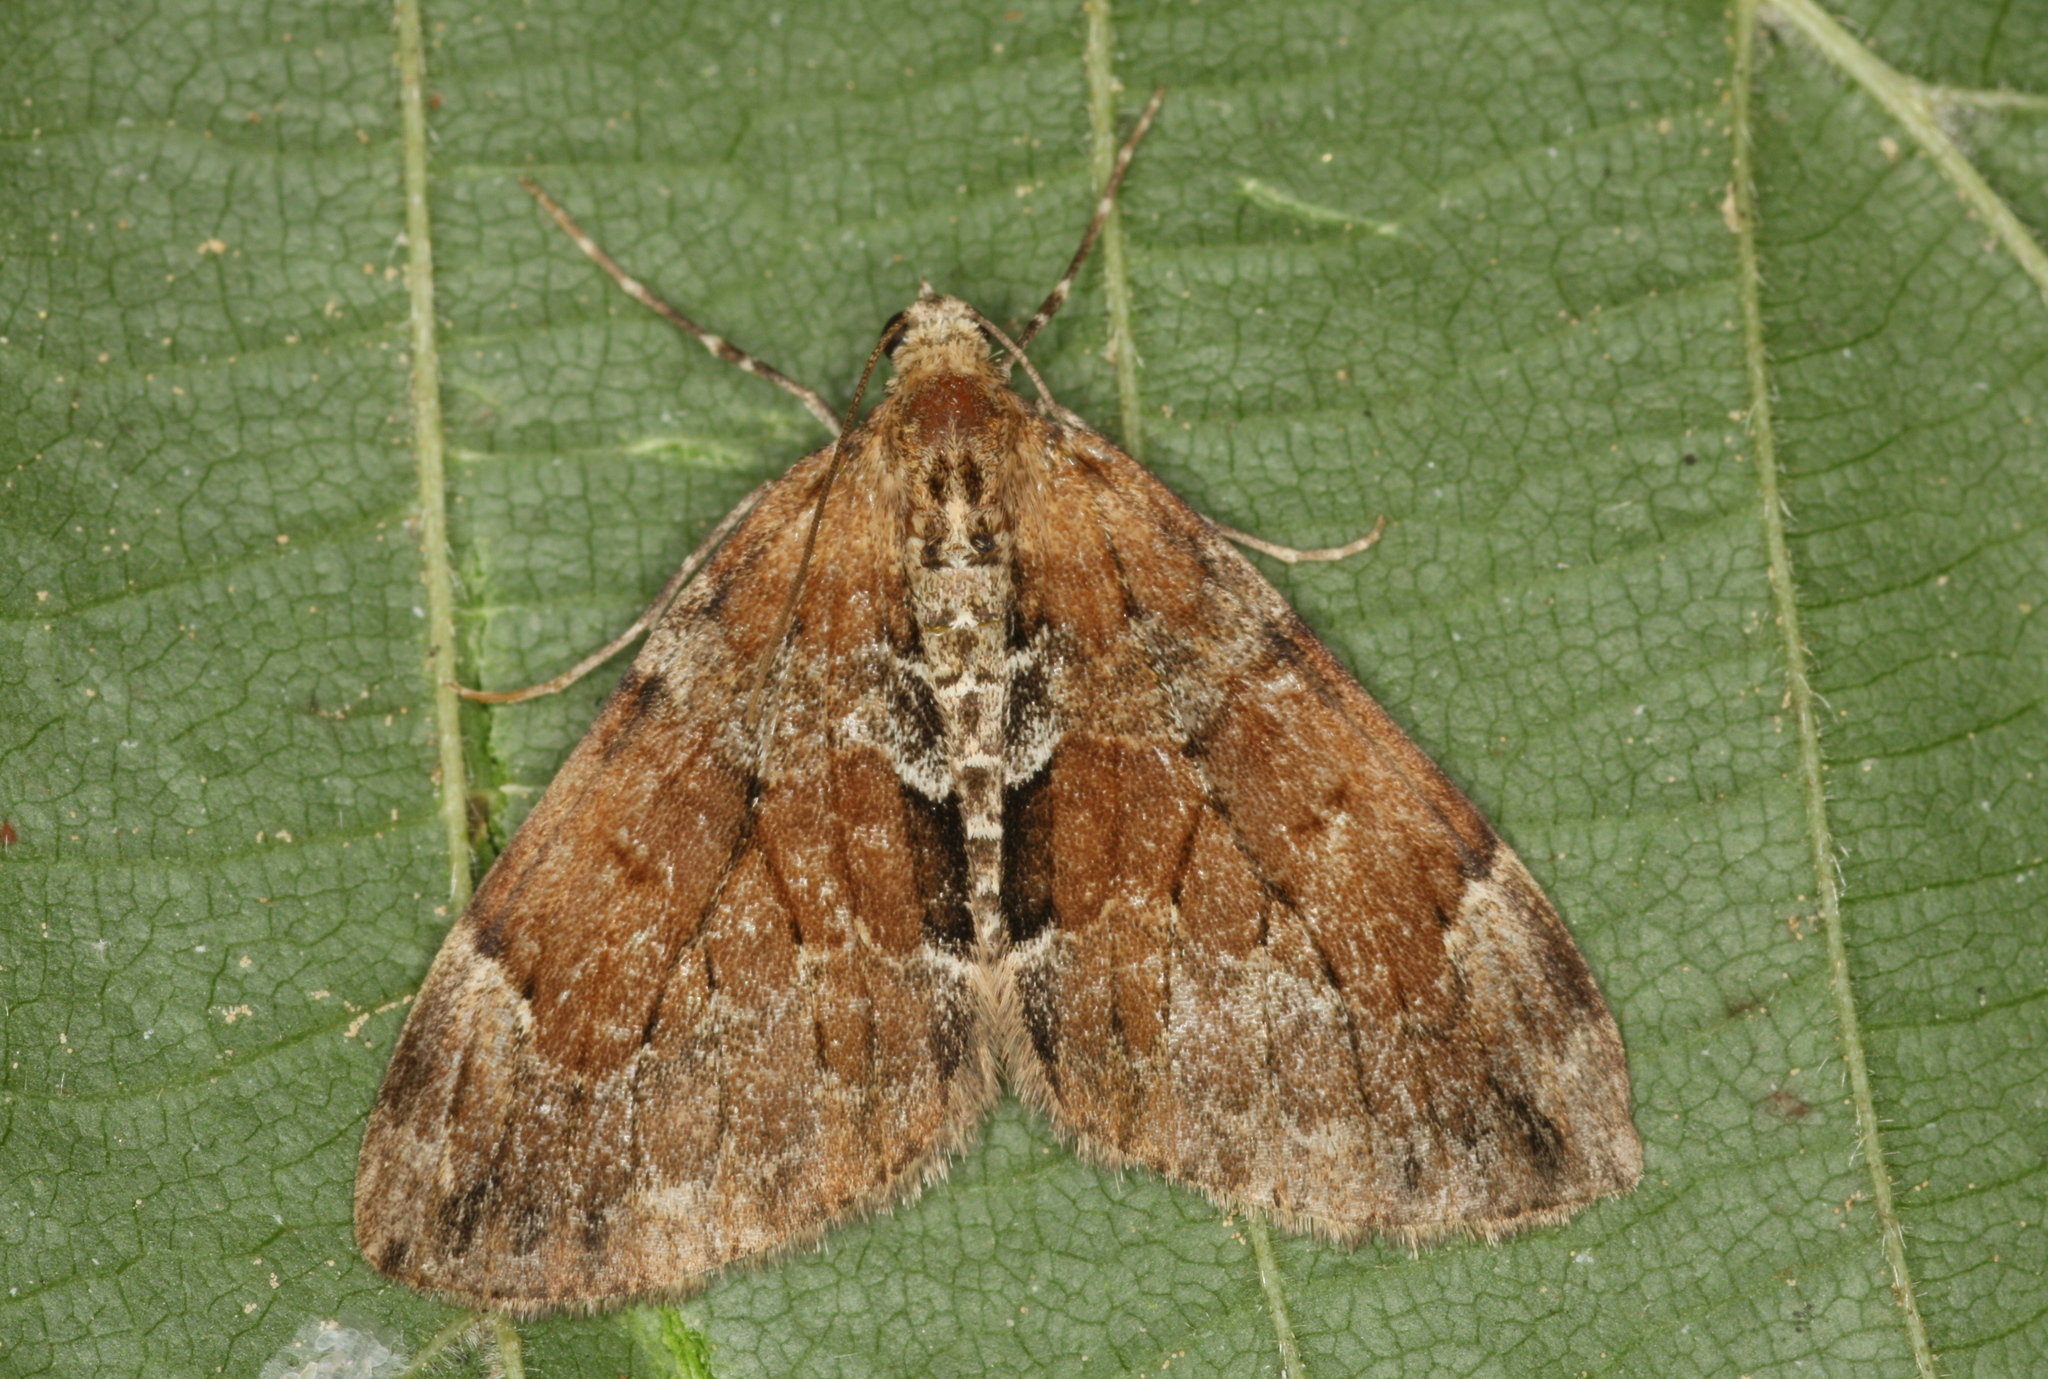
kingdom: Animalia
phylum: Arthropoda
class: Insecta
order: Lepidoptera
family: Geometridae
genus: Thera
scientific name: Thera obeliscata
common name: Grey pine carpet
